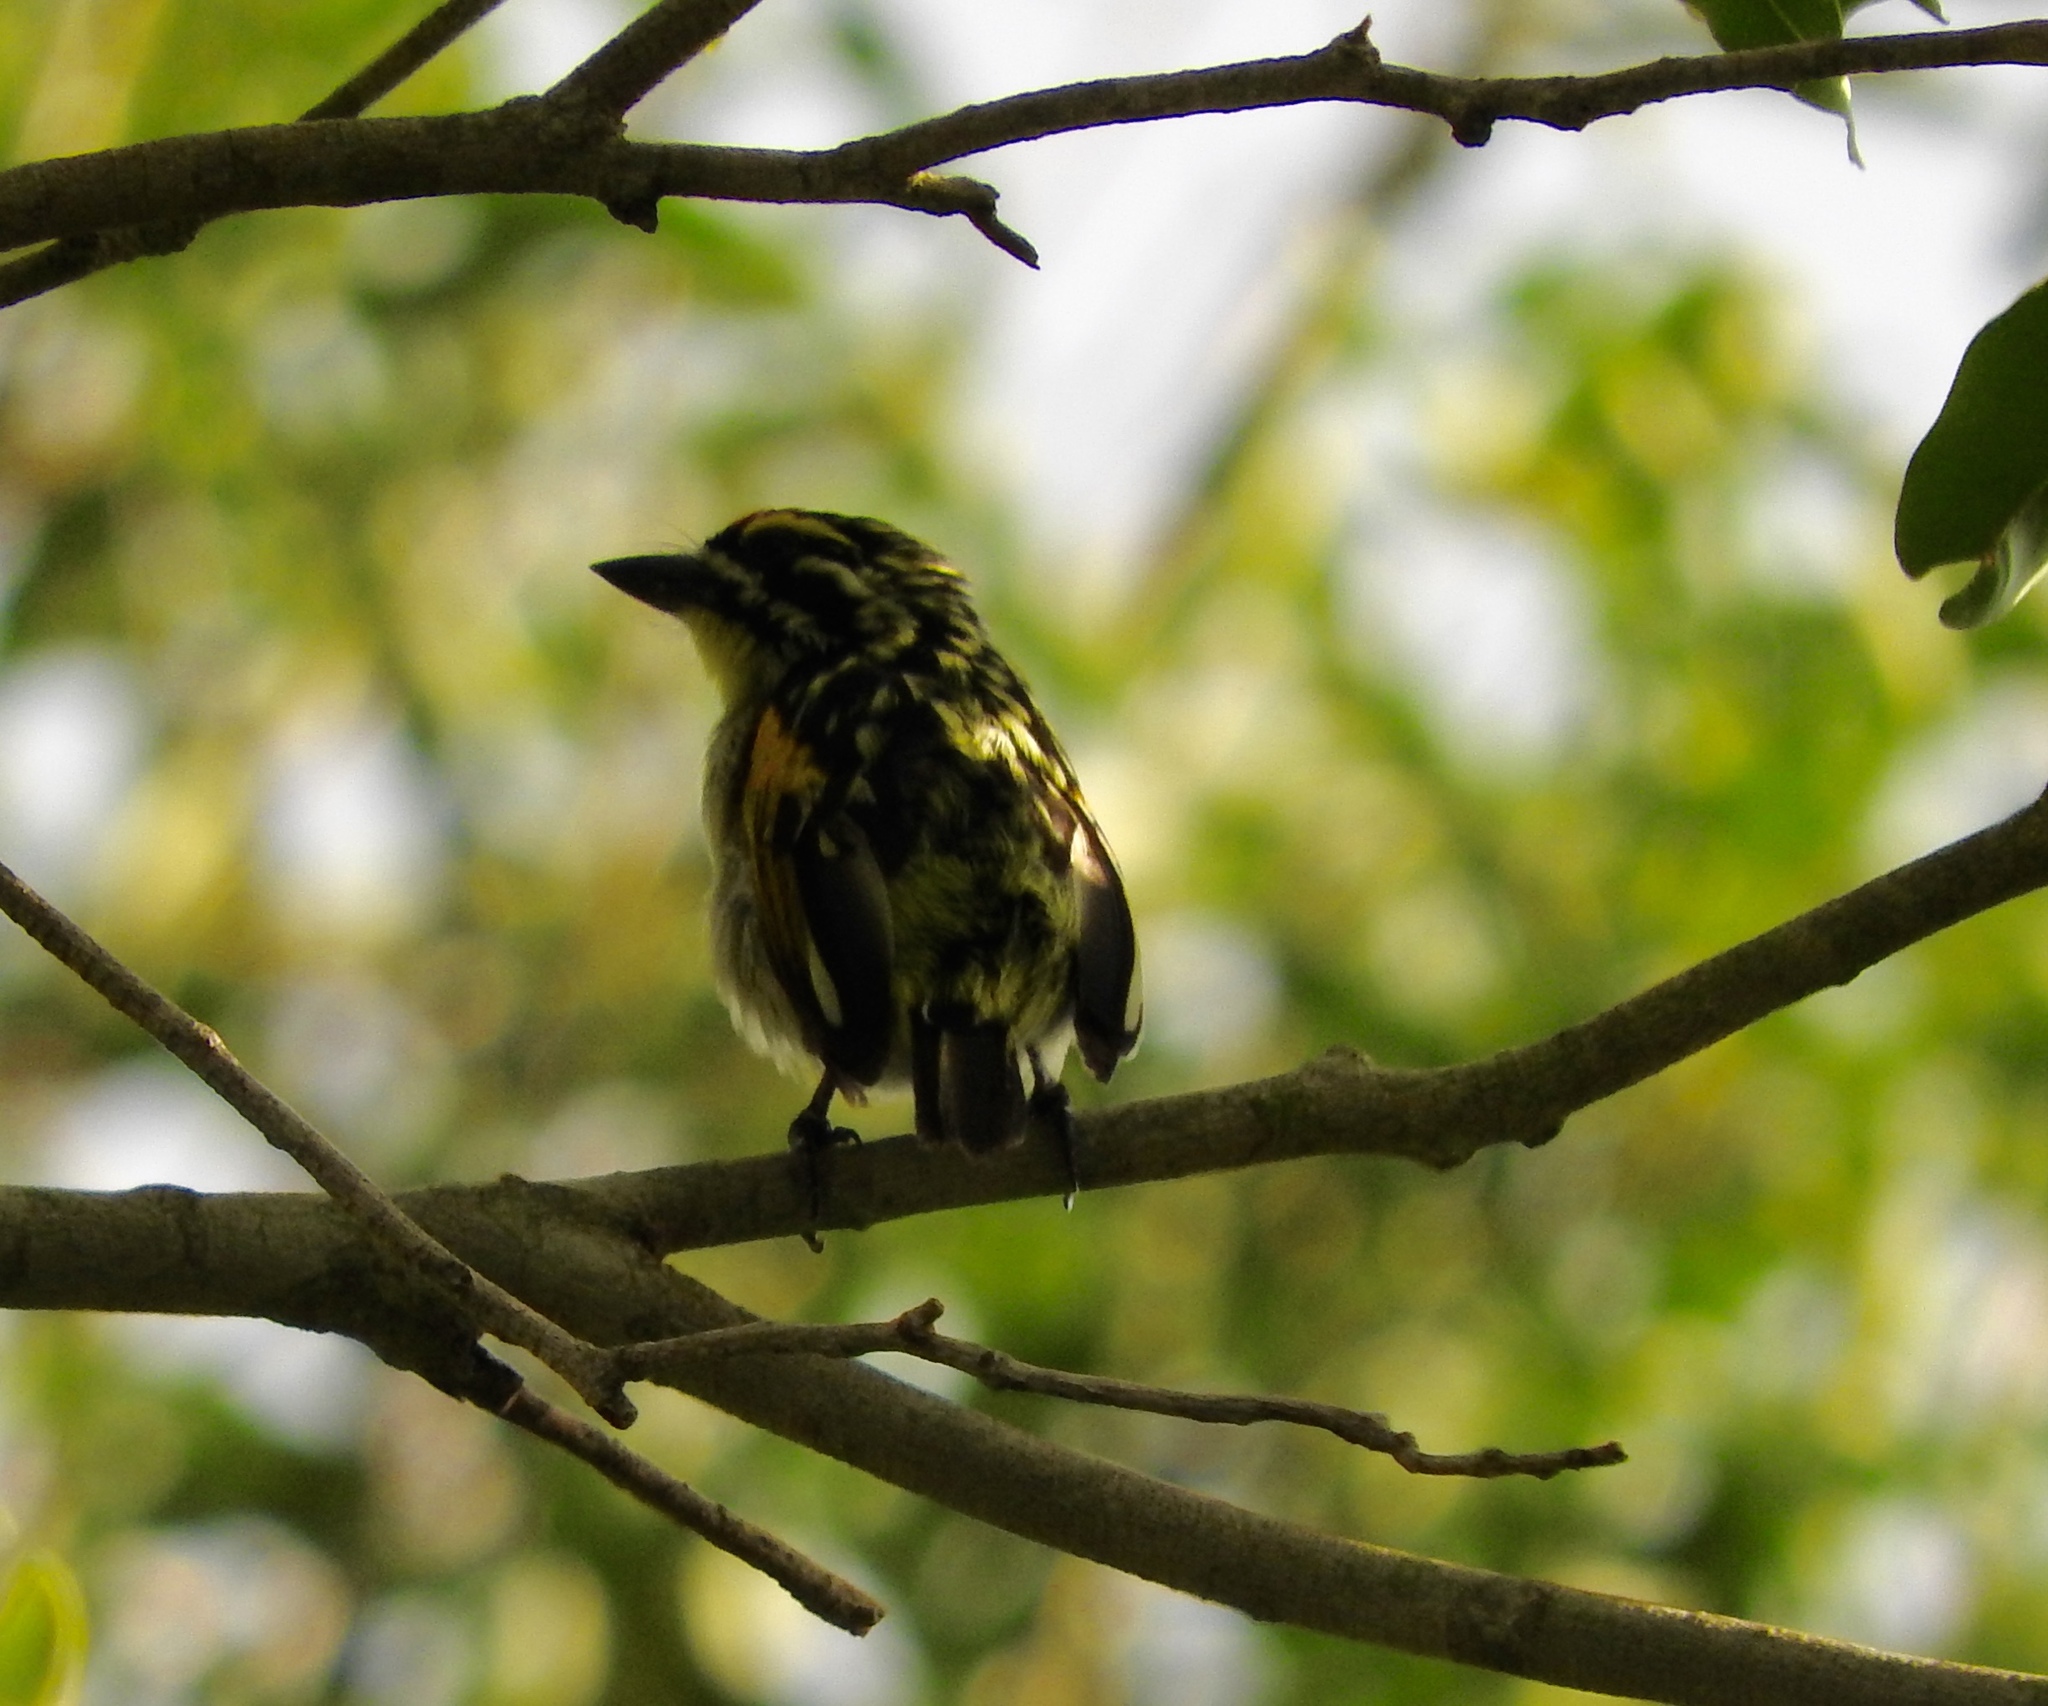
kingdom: Animalia
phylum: Chordata
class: Aves
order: Piciformes
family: Lybiidae
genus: Pogoniulus
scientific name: Pogoniulus pusillus
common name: Red-fronted tinkerbird
